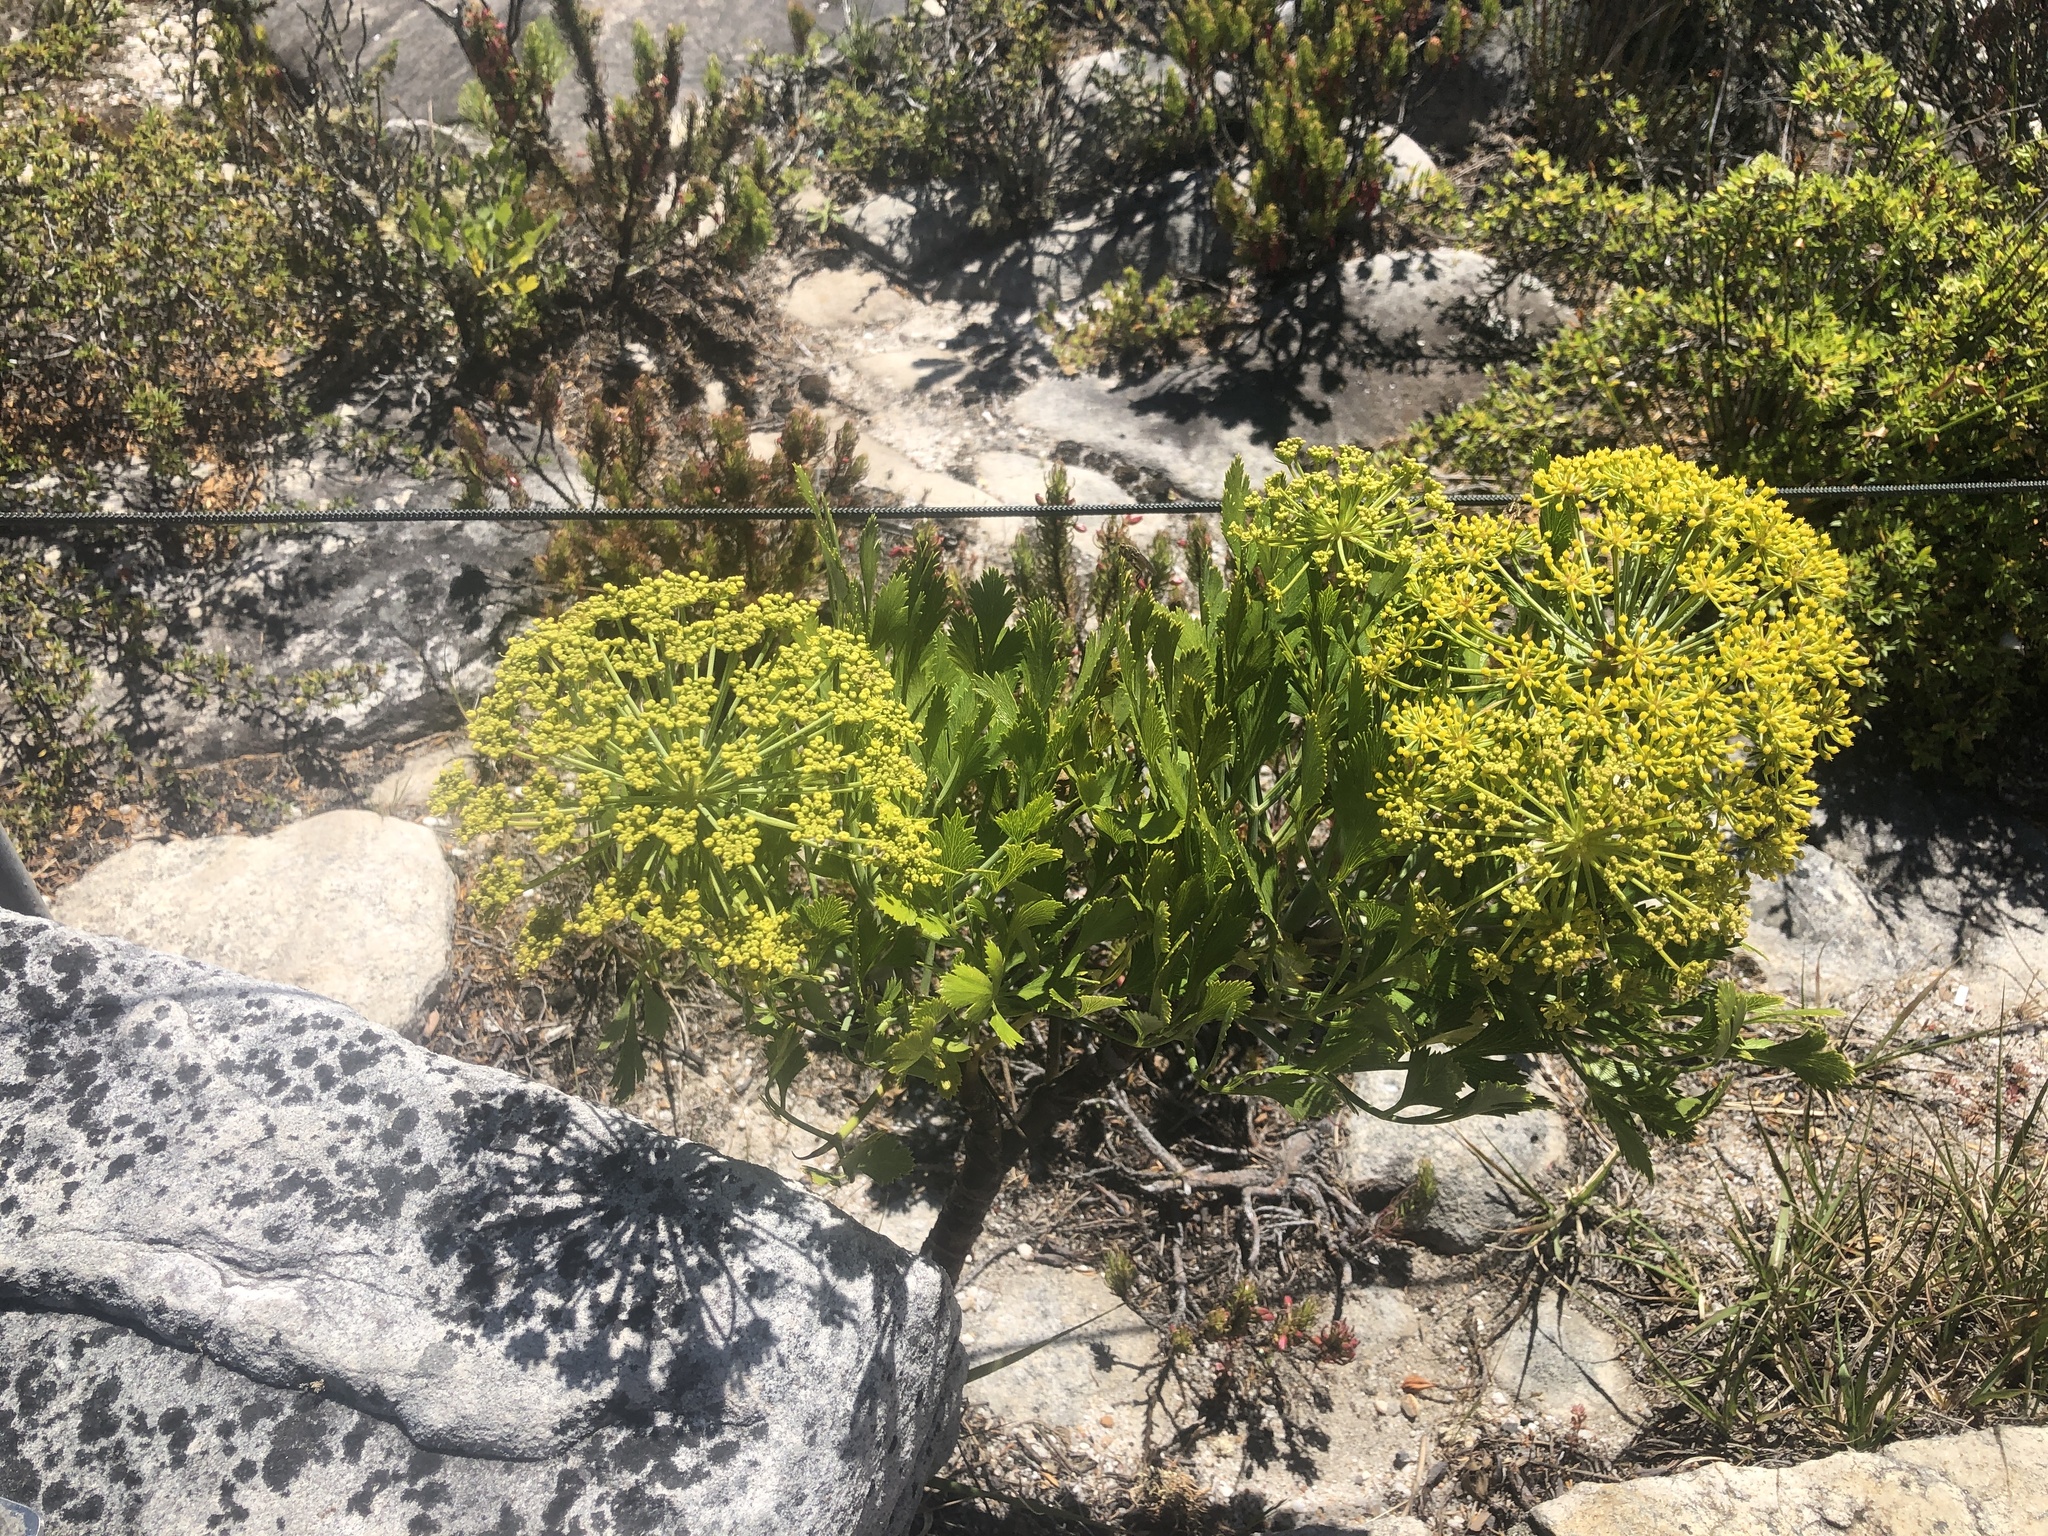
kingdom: Plantae
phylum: Tracheophyta
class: Magnoliopsida
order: Apiales
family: Apiaceae
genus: Notobubon
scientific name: Notobubon galbanum
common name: Blisterbush
